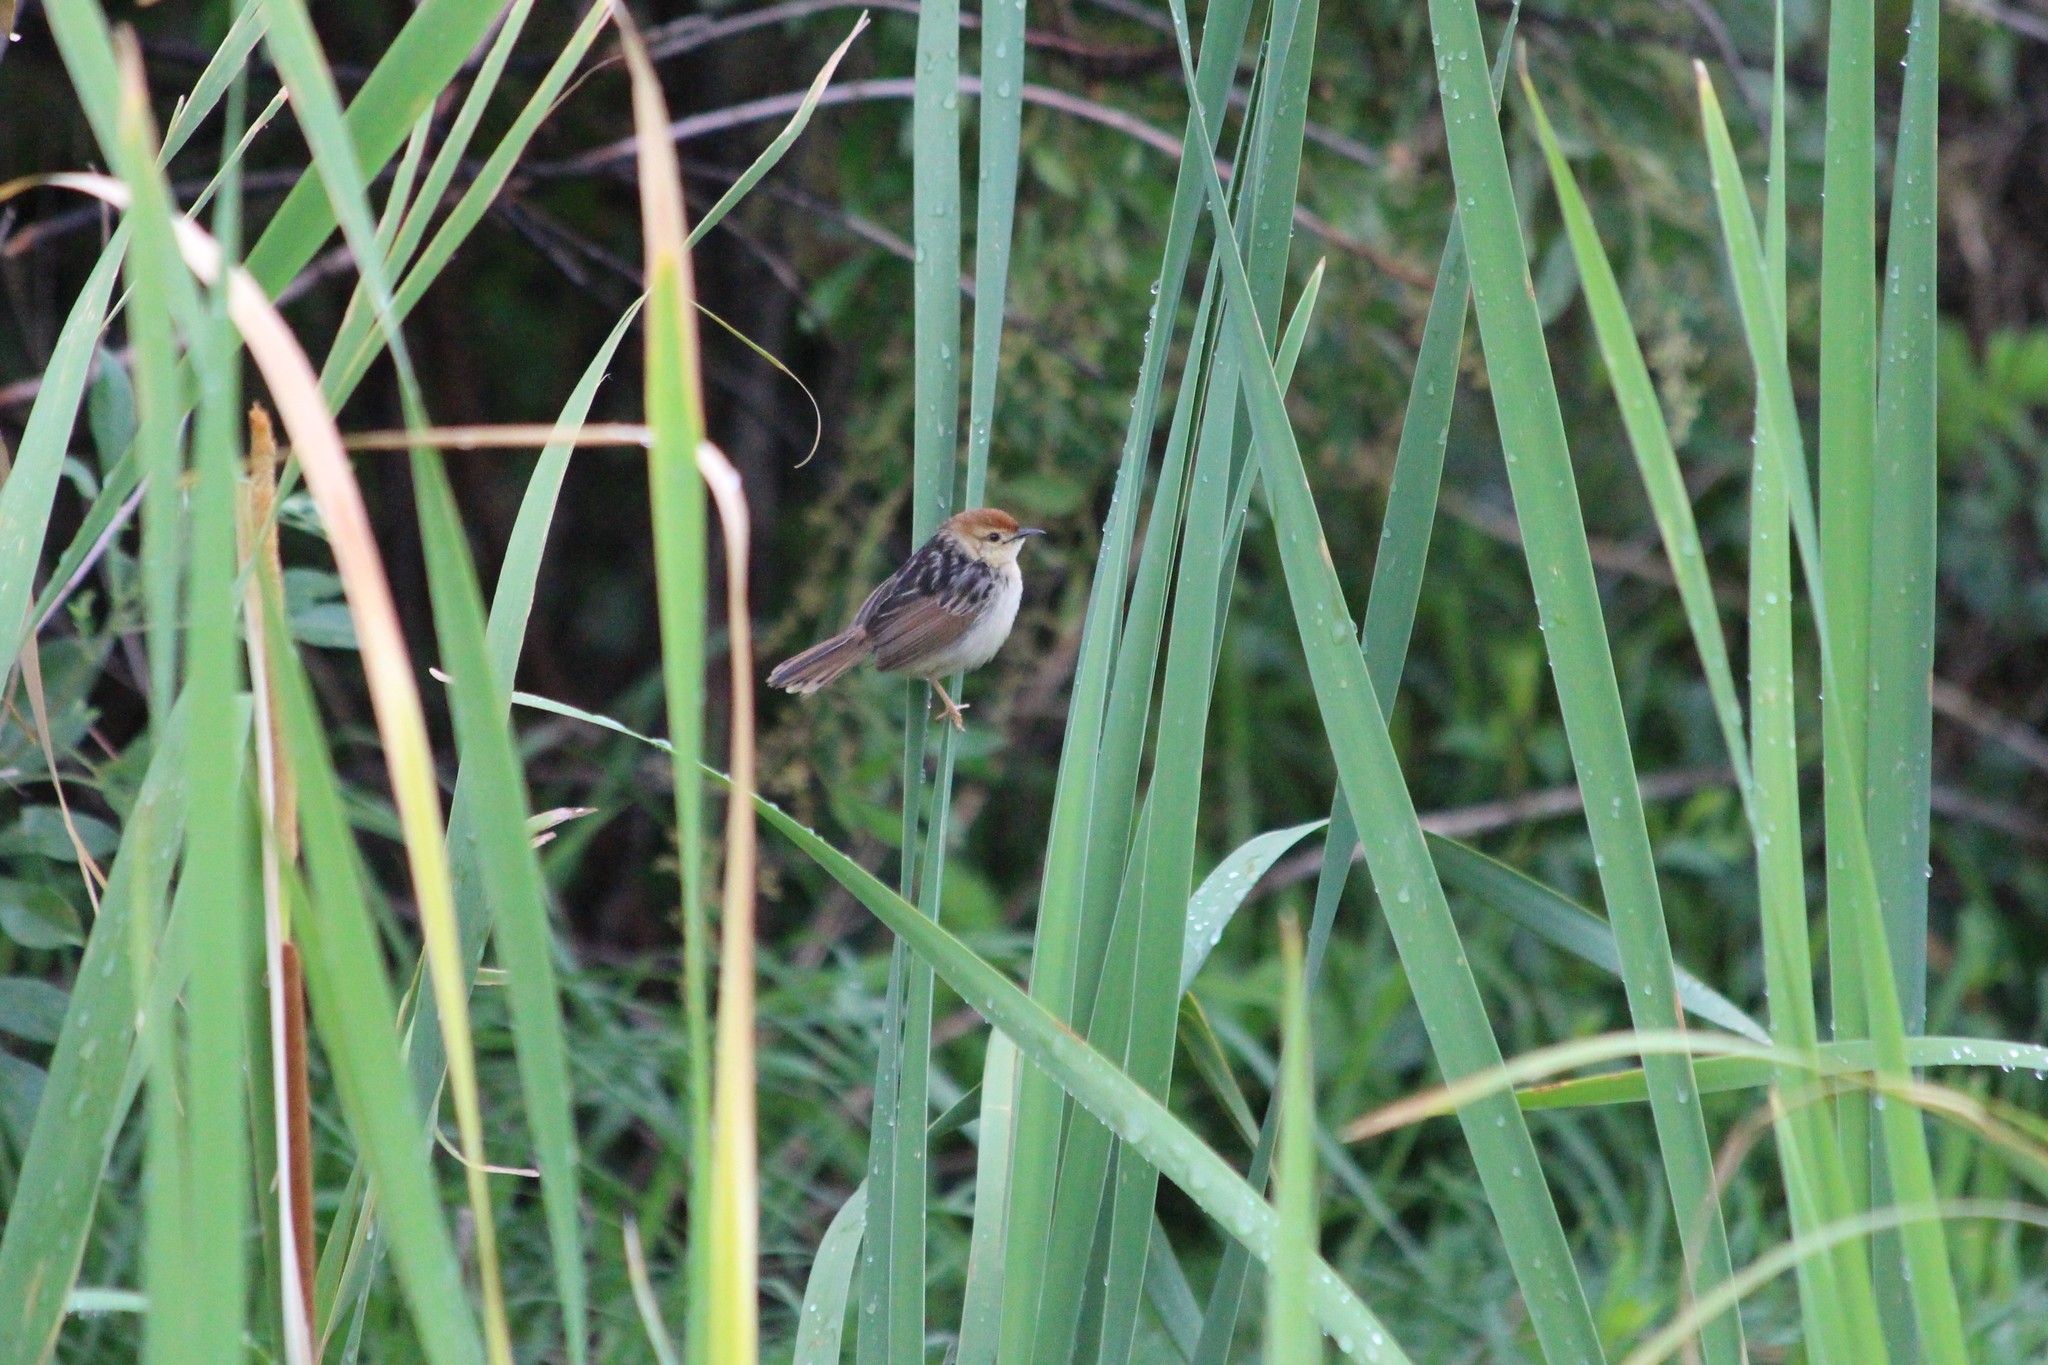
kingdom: Animalia
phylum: Chordata
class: Aves
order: Passeriformes
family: Cisticolidae
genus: Cisticola
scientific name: Cisticola tinniens
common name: Levaillant's cisticola
